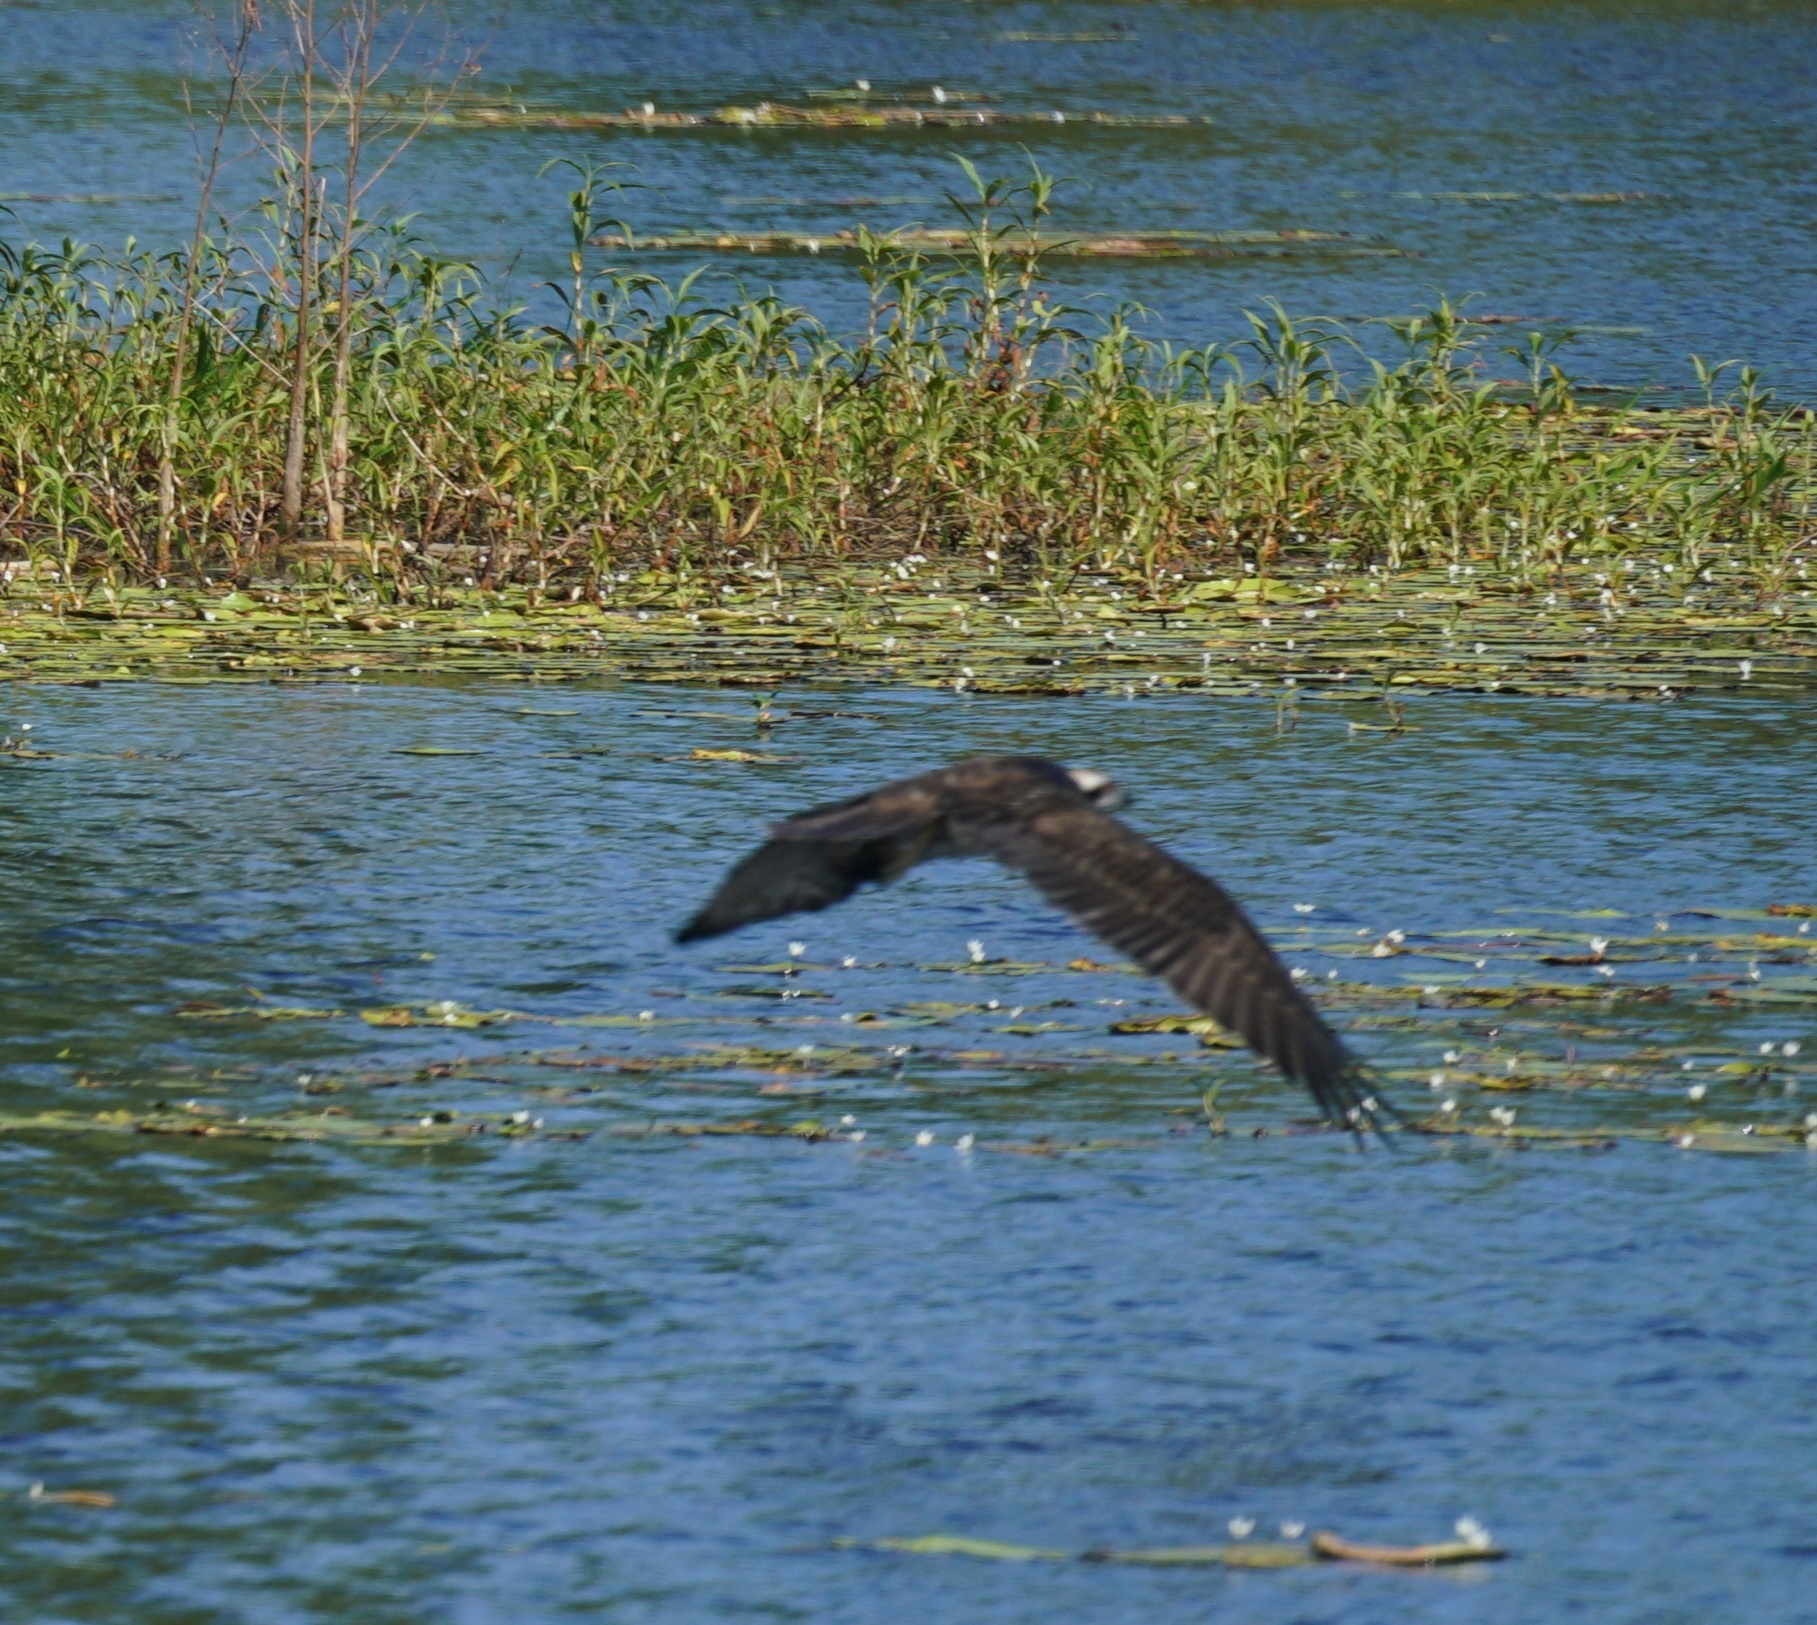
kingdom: Animalia
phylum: Chordata
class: Aves
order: Accipitriformes
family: Pandionidae
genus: Pandion
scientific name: Pandion haliaetus
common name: Osprey
